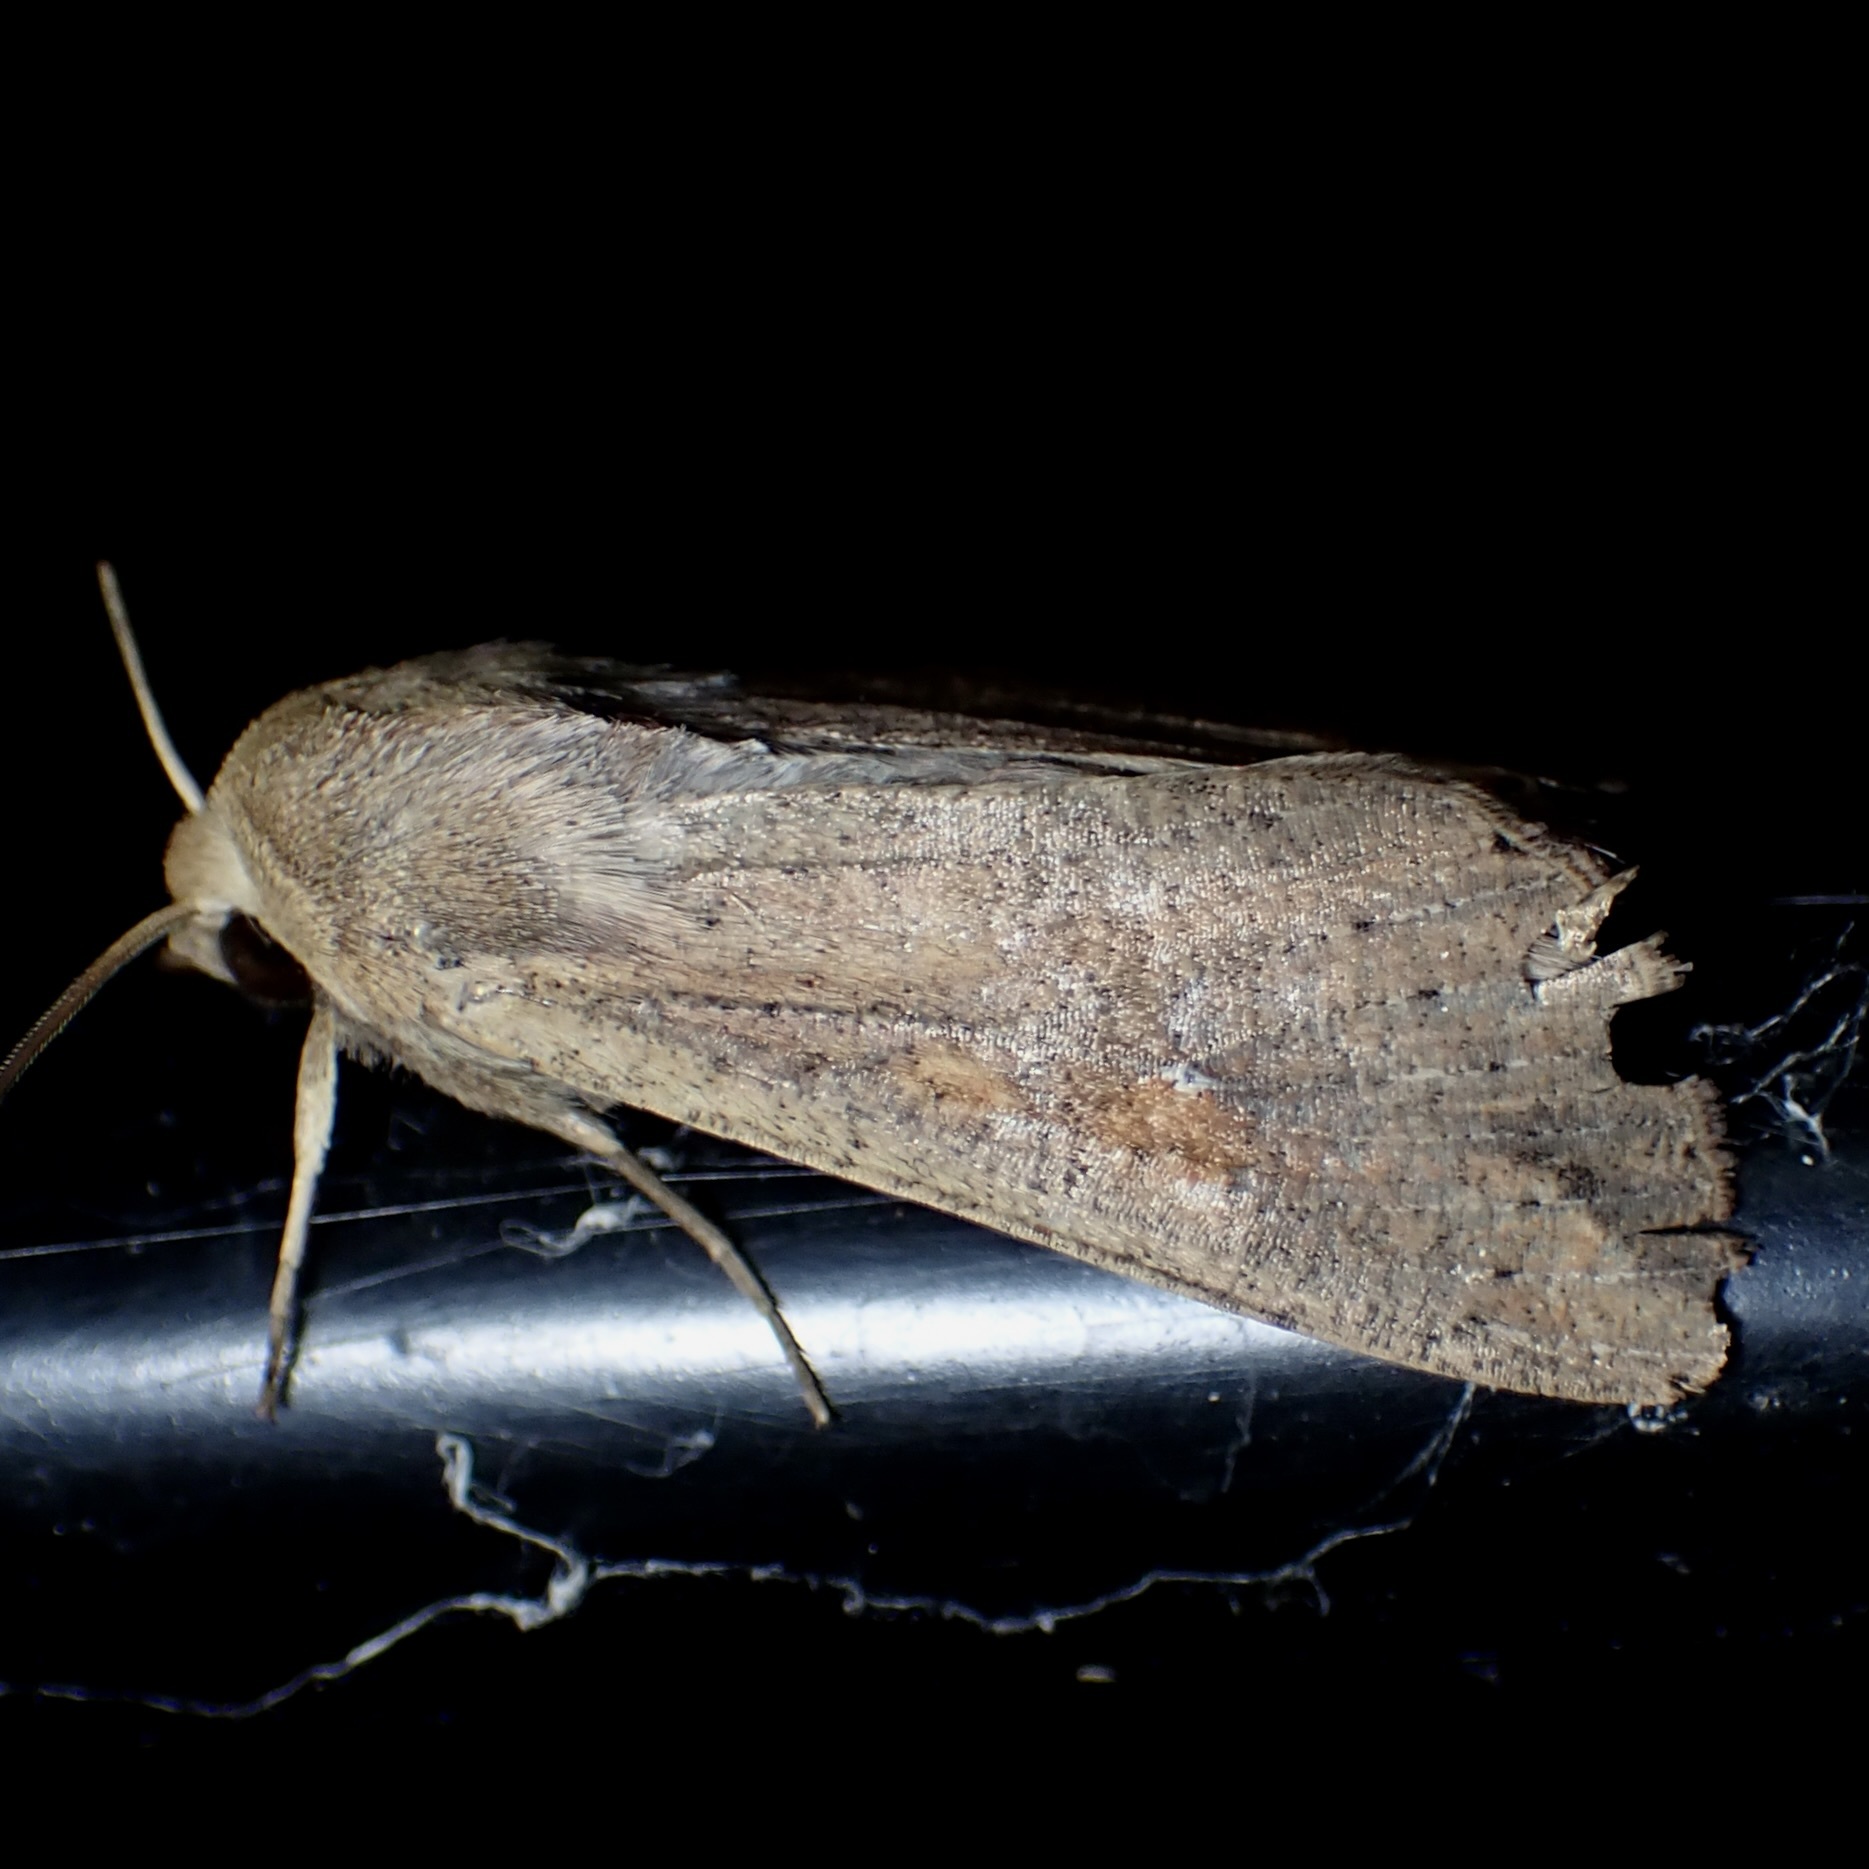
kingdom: Animalia
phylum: Arthropoda
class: Insecta
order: Lepidoptera
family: Noctuidae
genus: Mythimna
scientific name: Mythimna unipuncta
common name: White-speck
